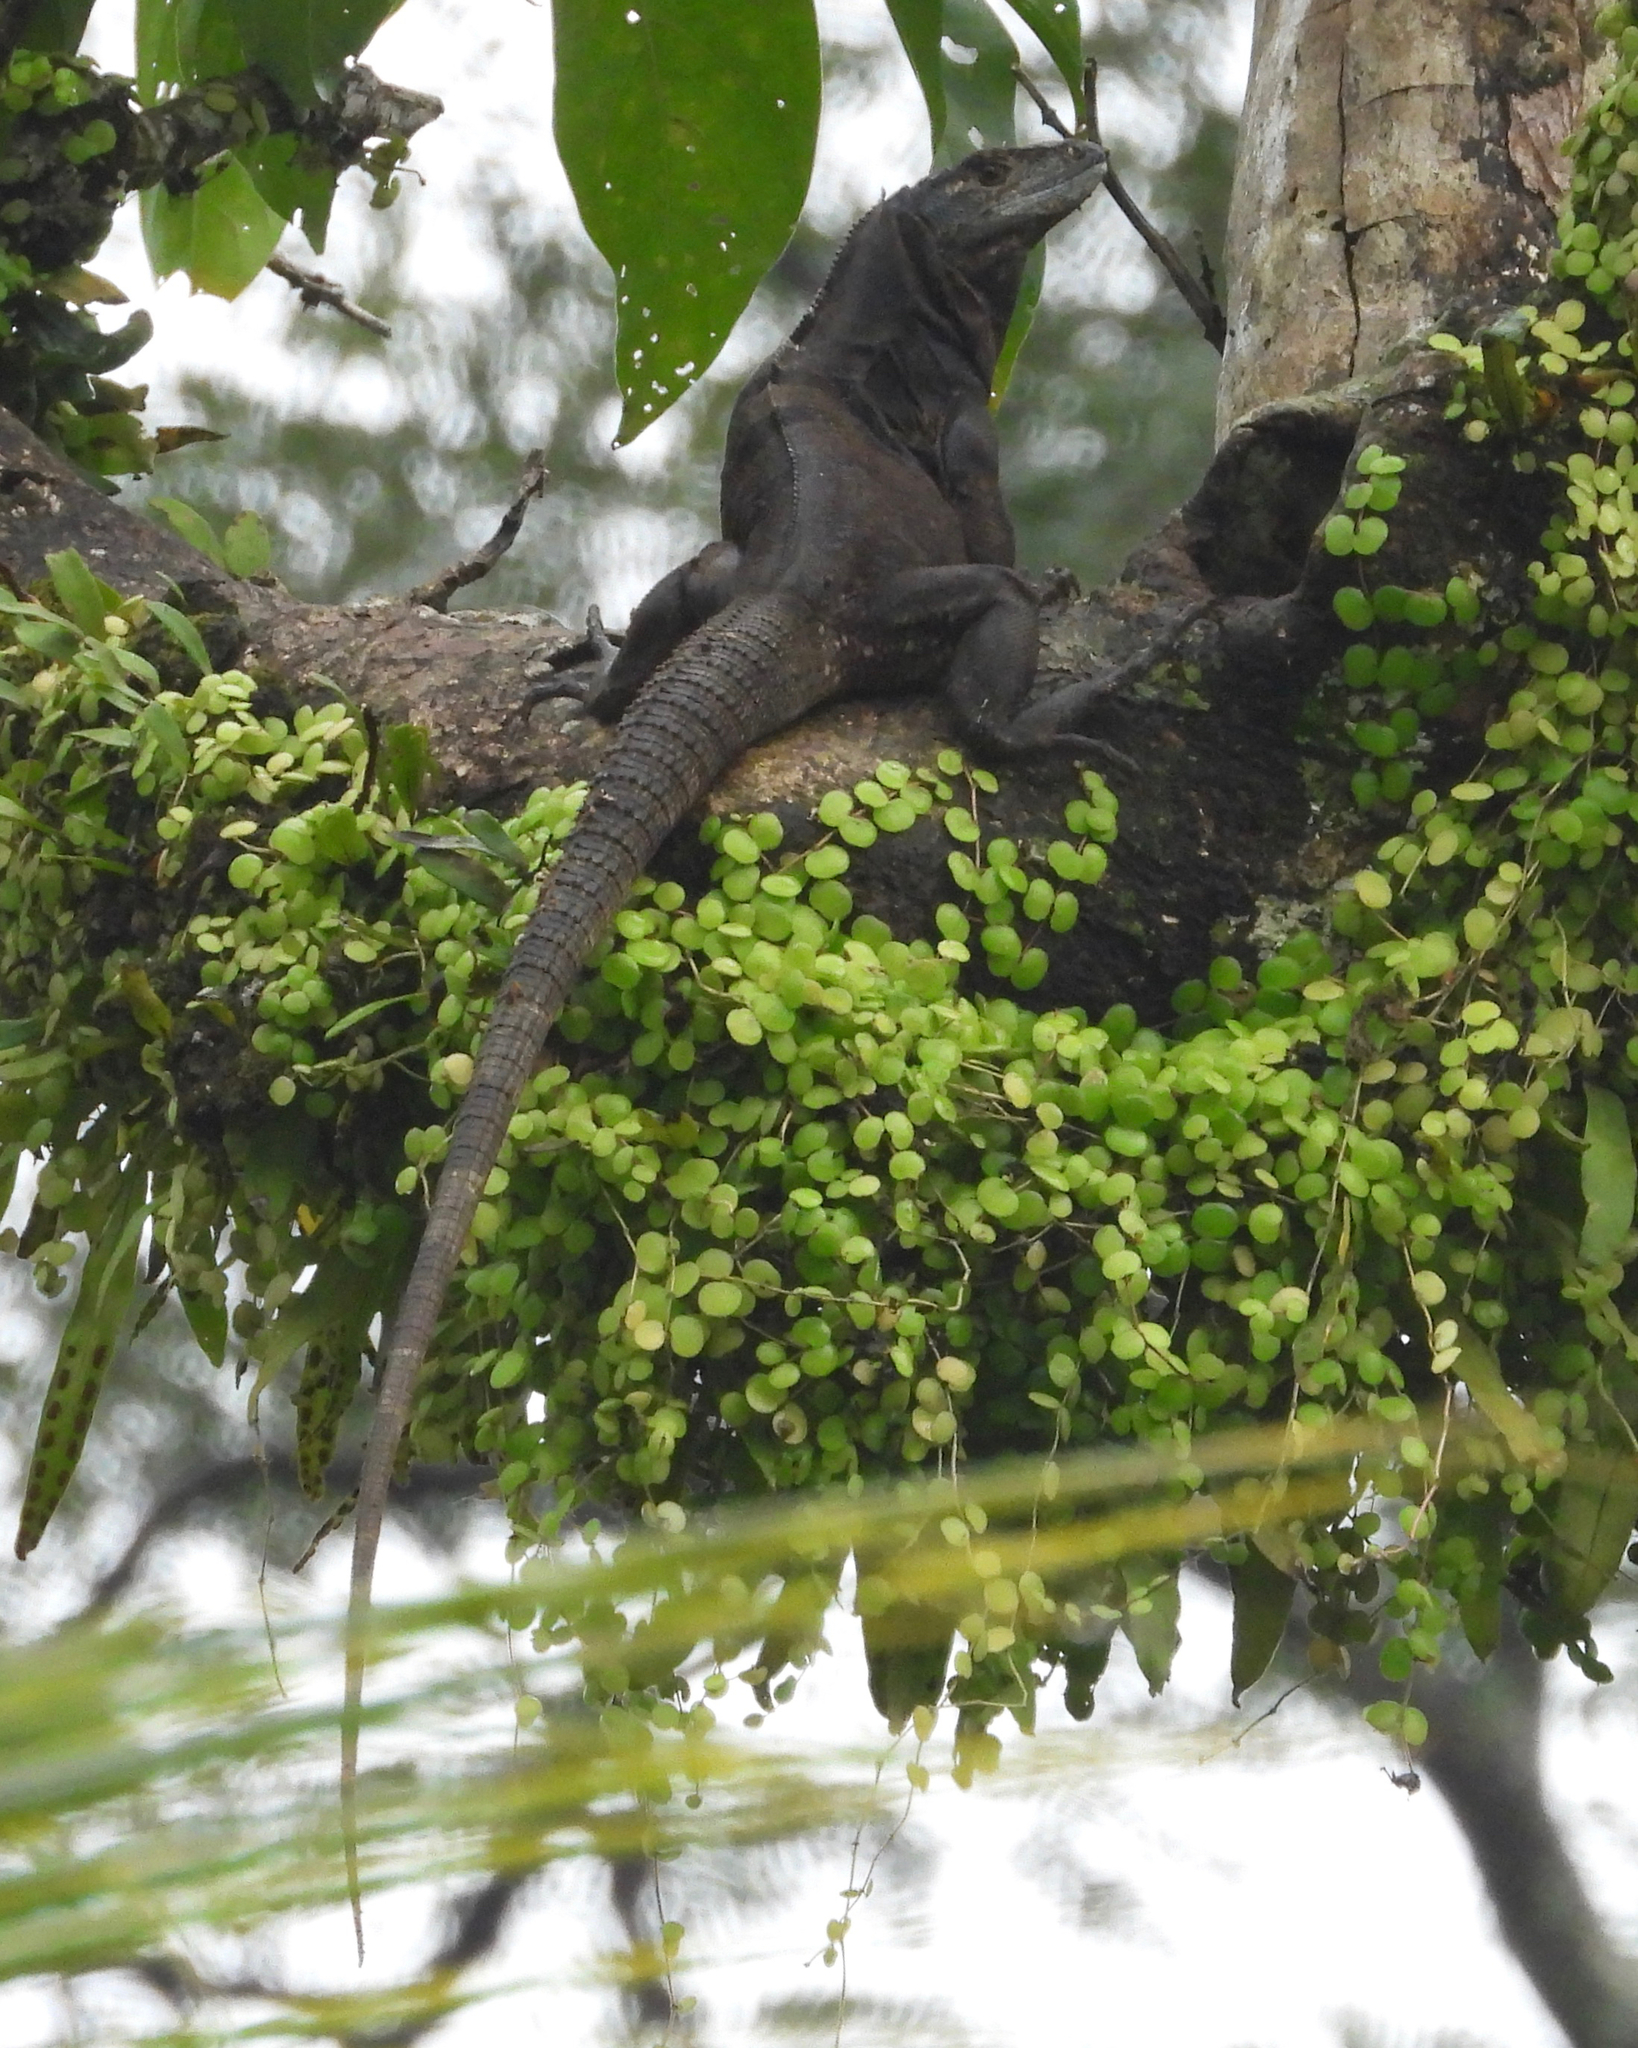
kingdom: Animalia
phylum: Chordata
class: Squamata
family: Iguanidae
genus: Ctenosaura
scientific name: Ctenosaura similis
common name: Black spiny-tailed iguana
